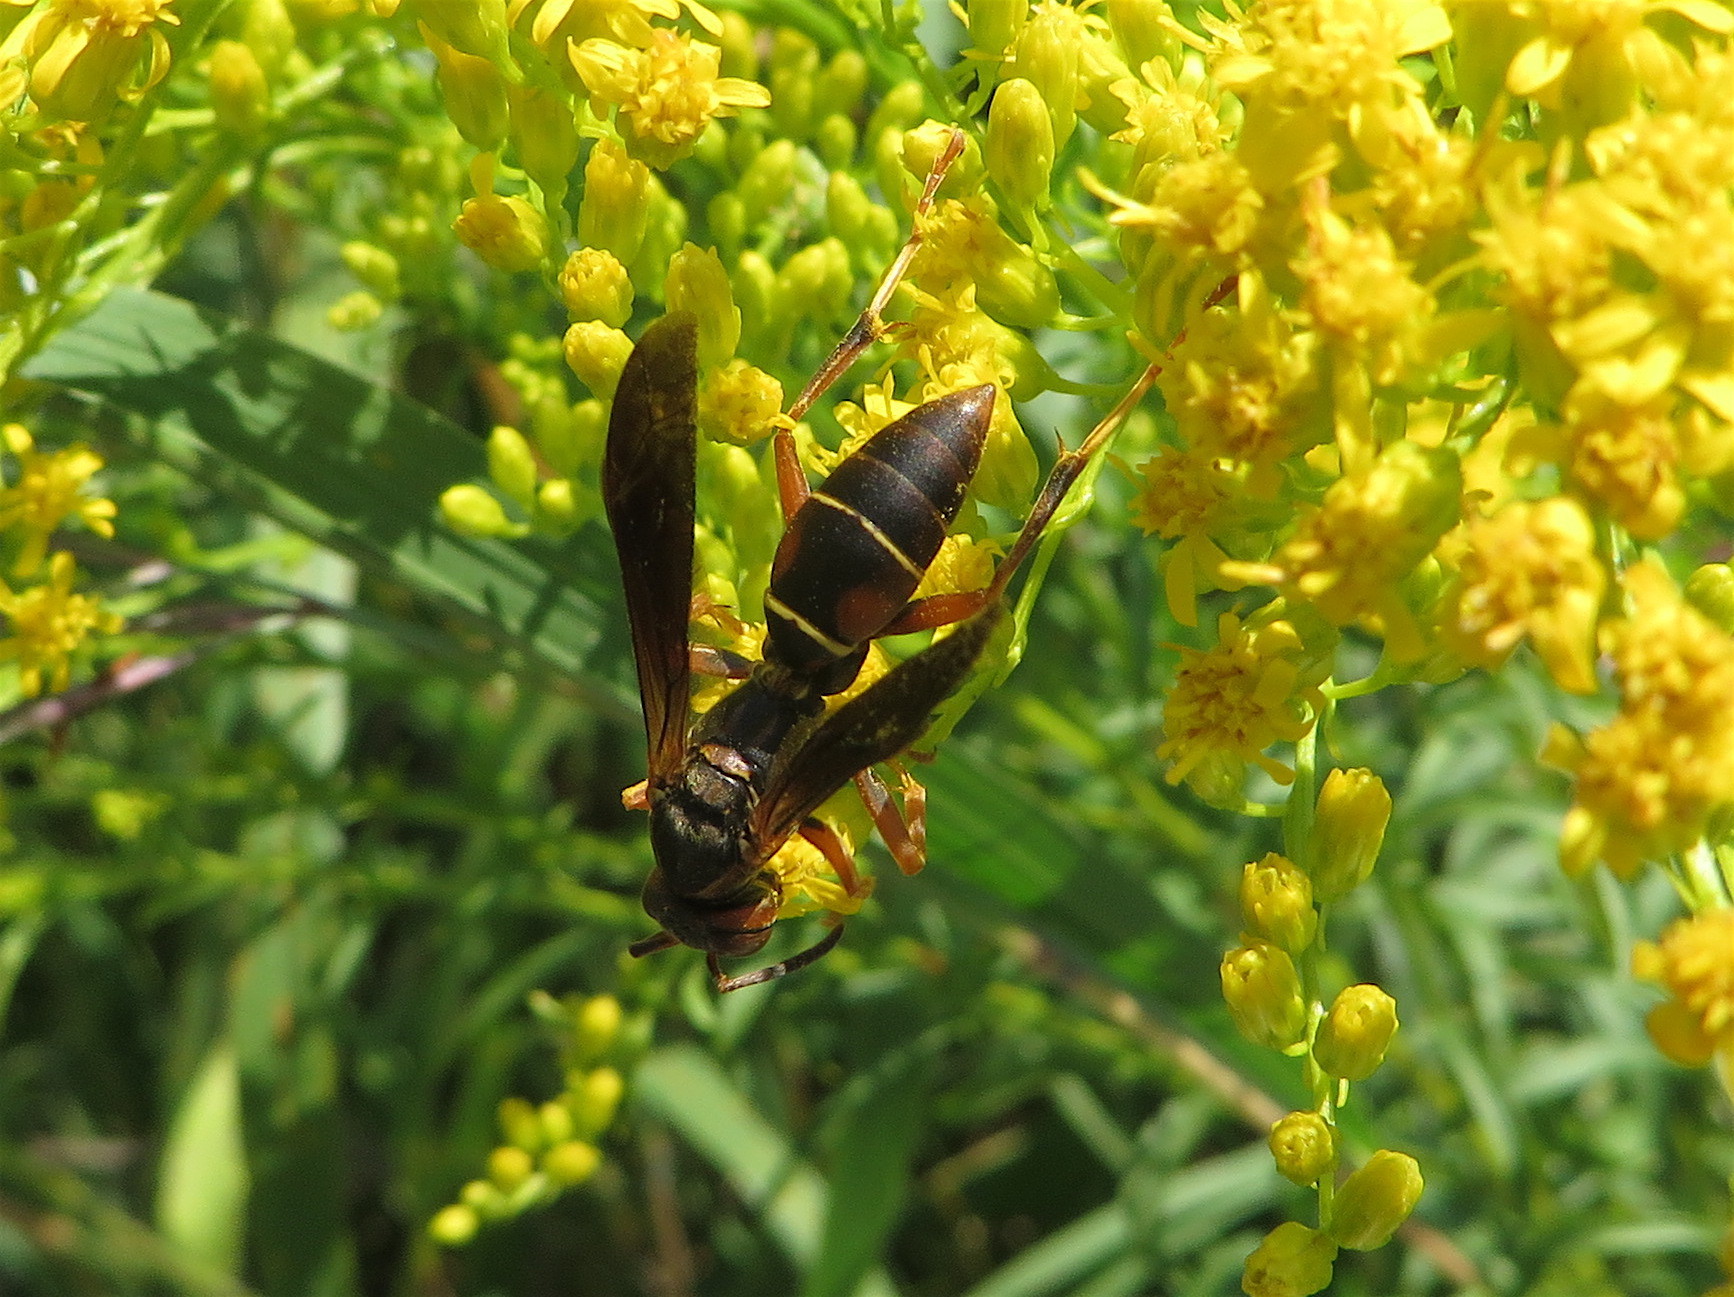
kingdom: Animalia
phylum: Arthropoda
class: Insecta
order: Hymenoptera
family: Eumenidae
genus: Polistes
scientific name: Polistes fuscatus
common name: Dark paper wasp
